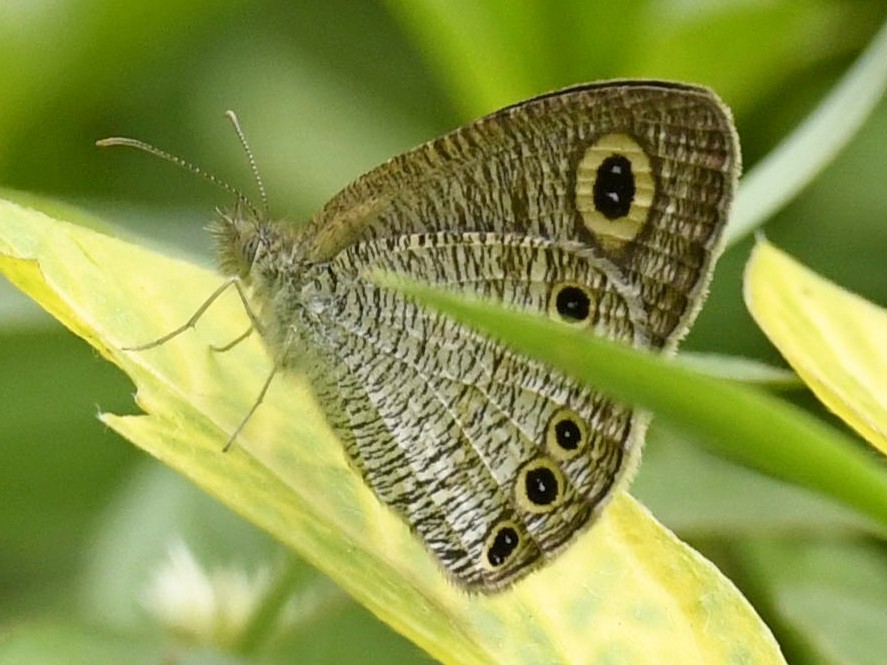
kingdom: Animalia
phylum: Arthropoda
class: Insecta
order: Lepidoptera
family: Nymphalidae
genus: Ypthima
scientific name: Ypthima huebneri
